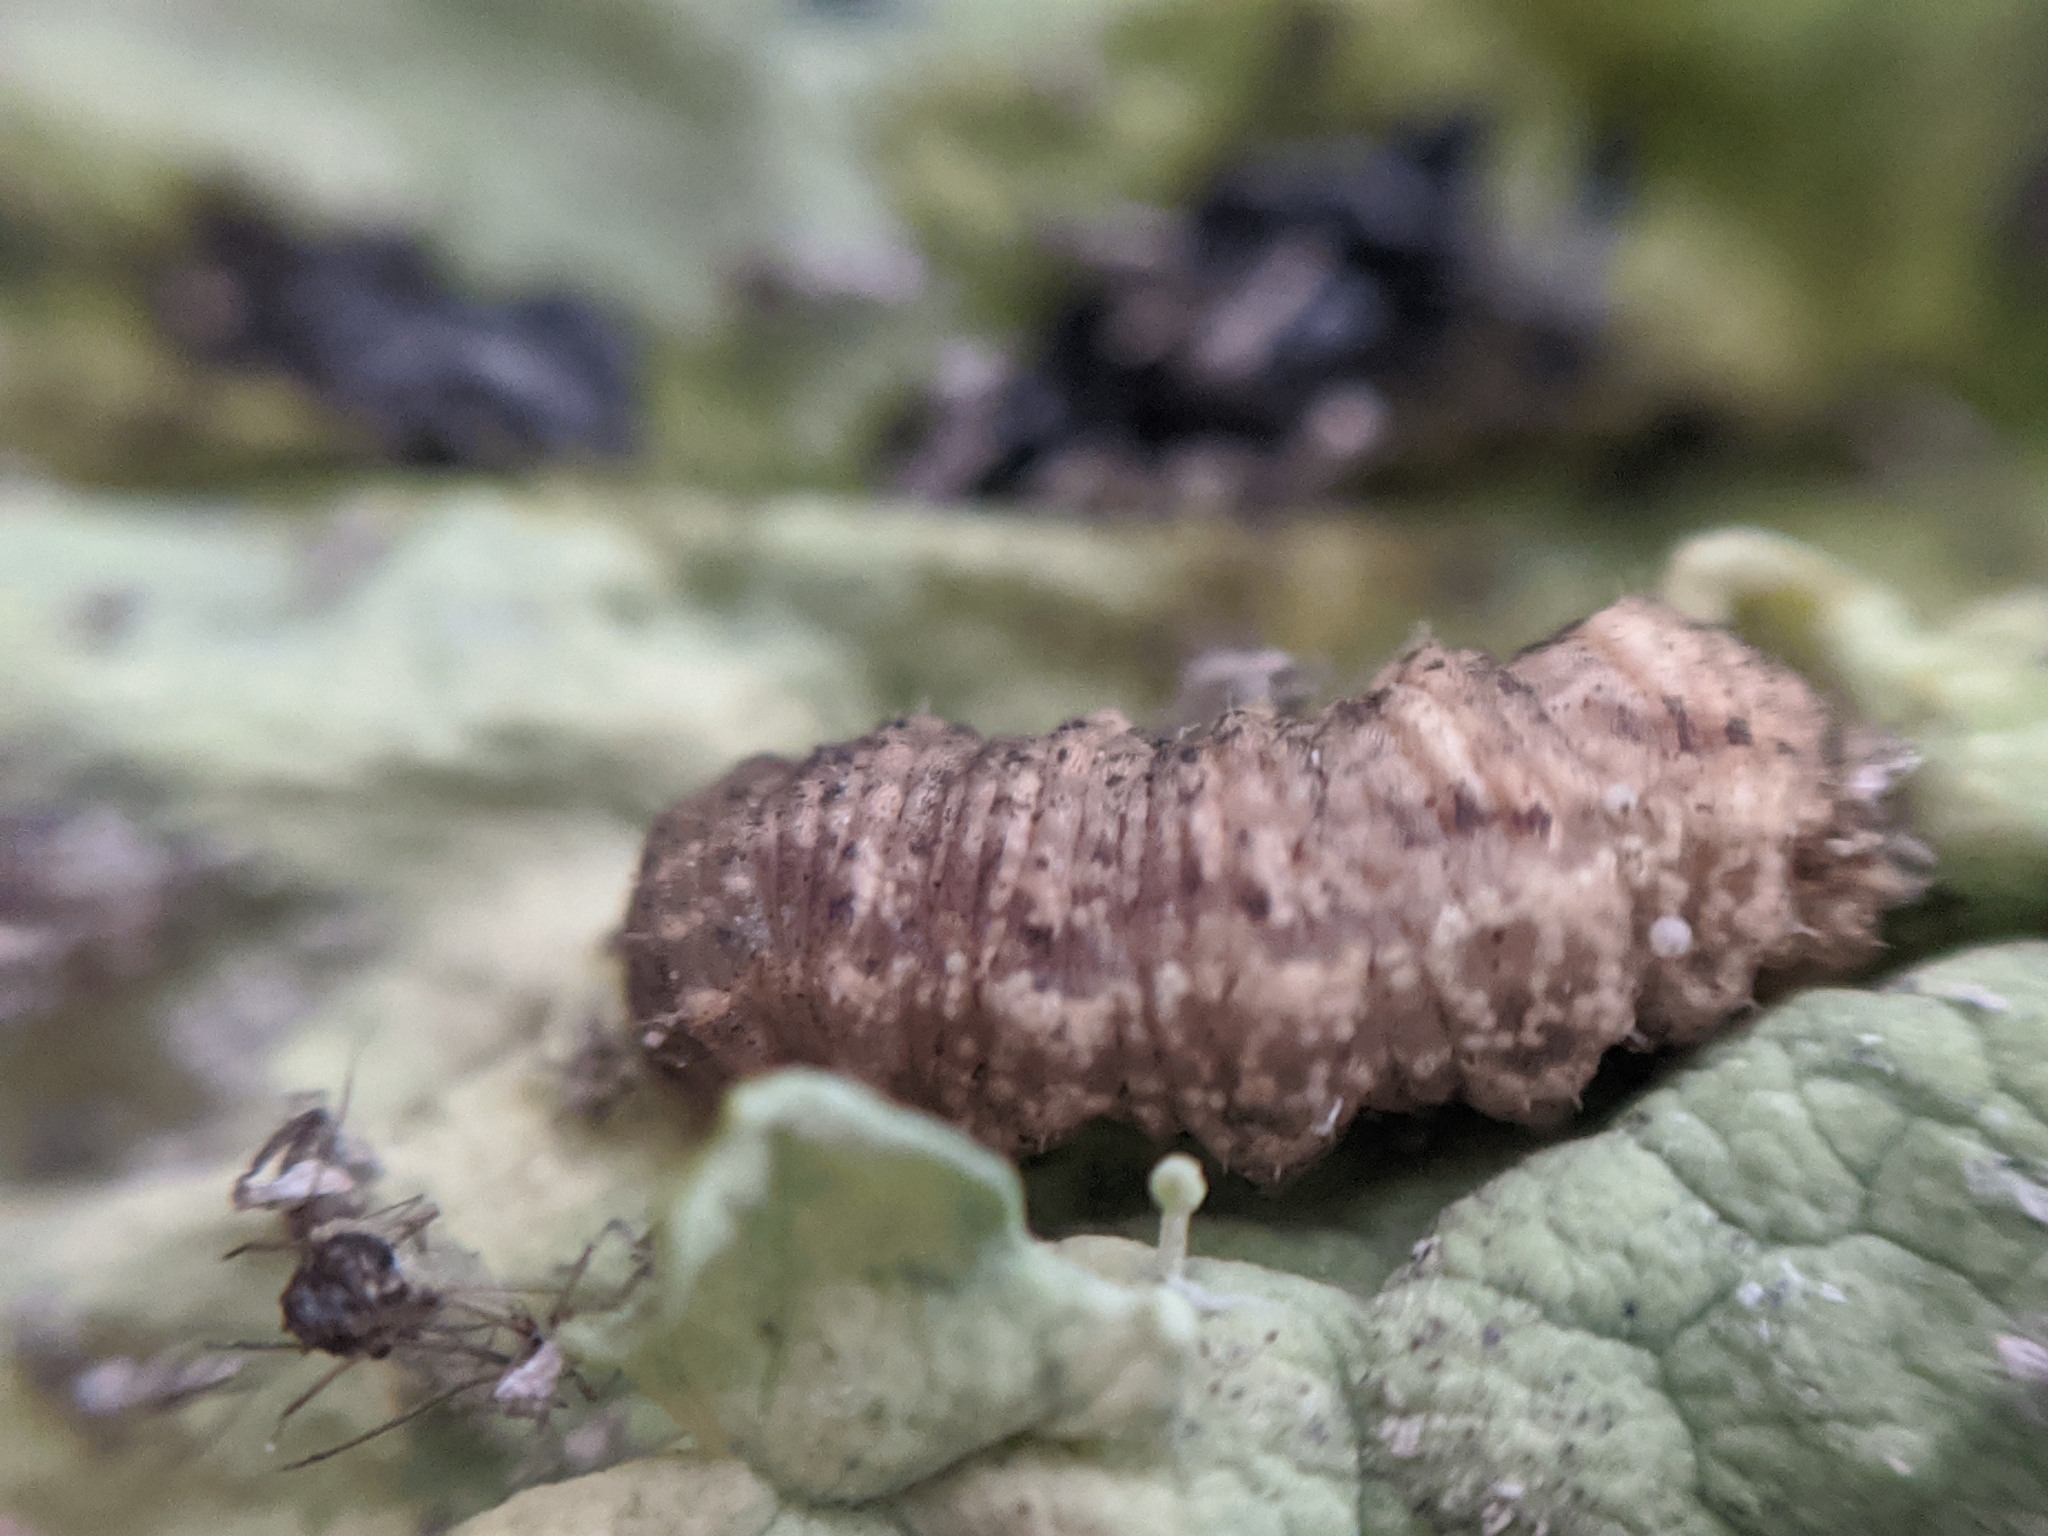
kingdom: Animalia
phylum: Arthropoda
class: Insecta
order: Diptera
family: Syrphidae
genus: Eupeodes
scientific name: Eupeodes fumipennis
